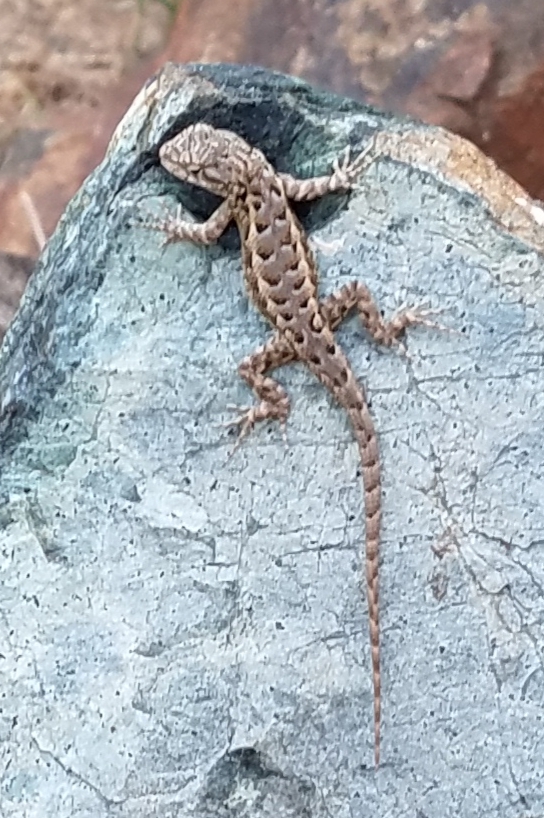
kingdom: Animalia
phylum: Chordata
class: Squamata
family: Phrynosomatidae
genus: Sceloporus
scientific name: Sceloporus occidentalis
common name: Western fence lizard
